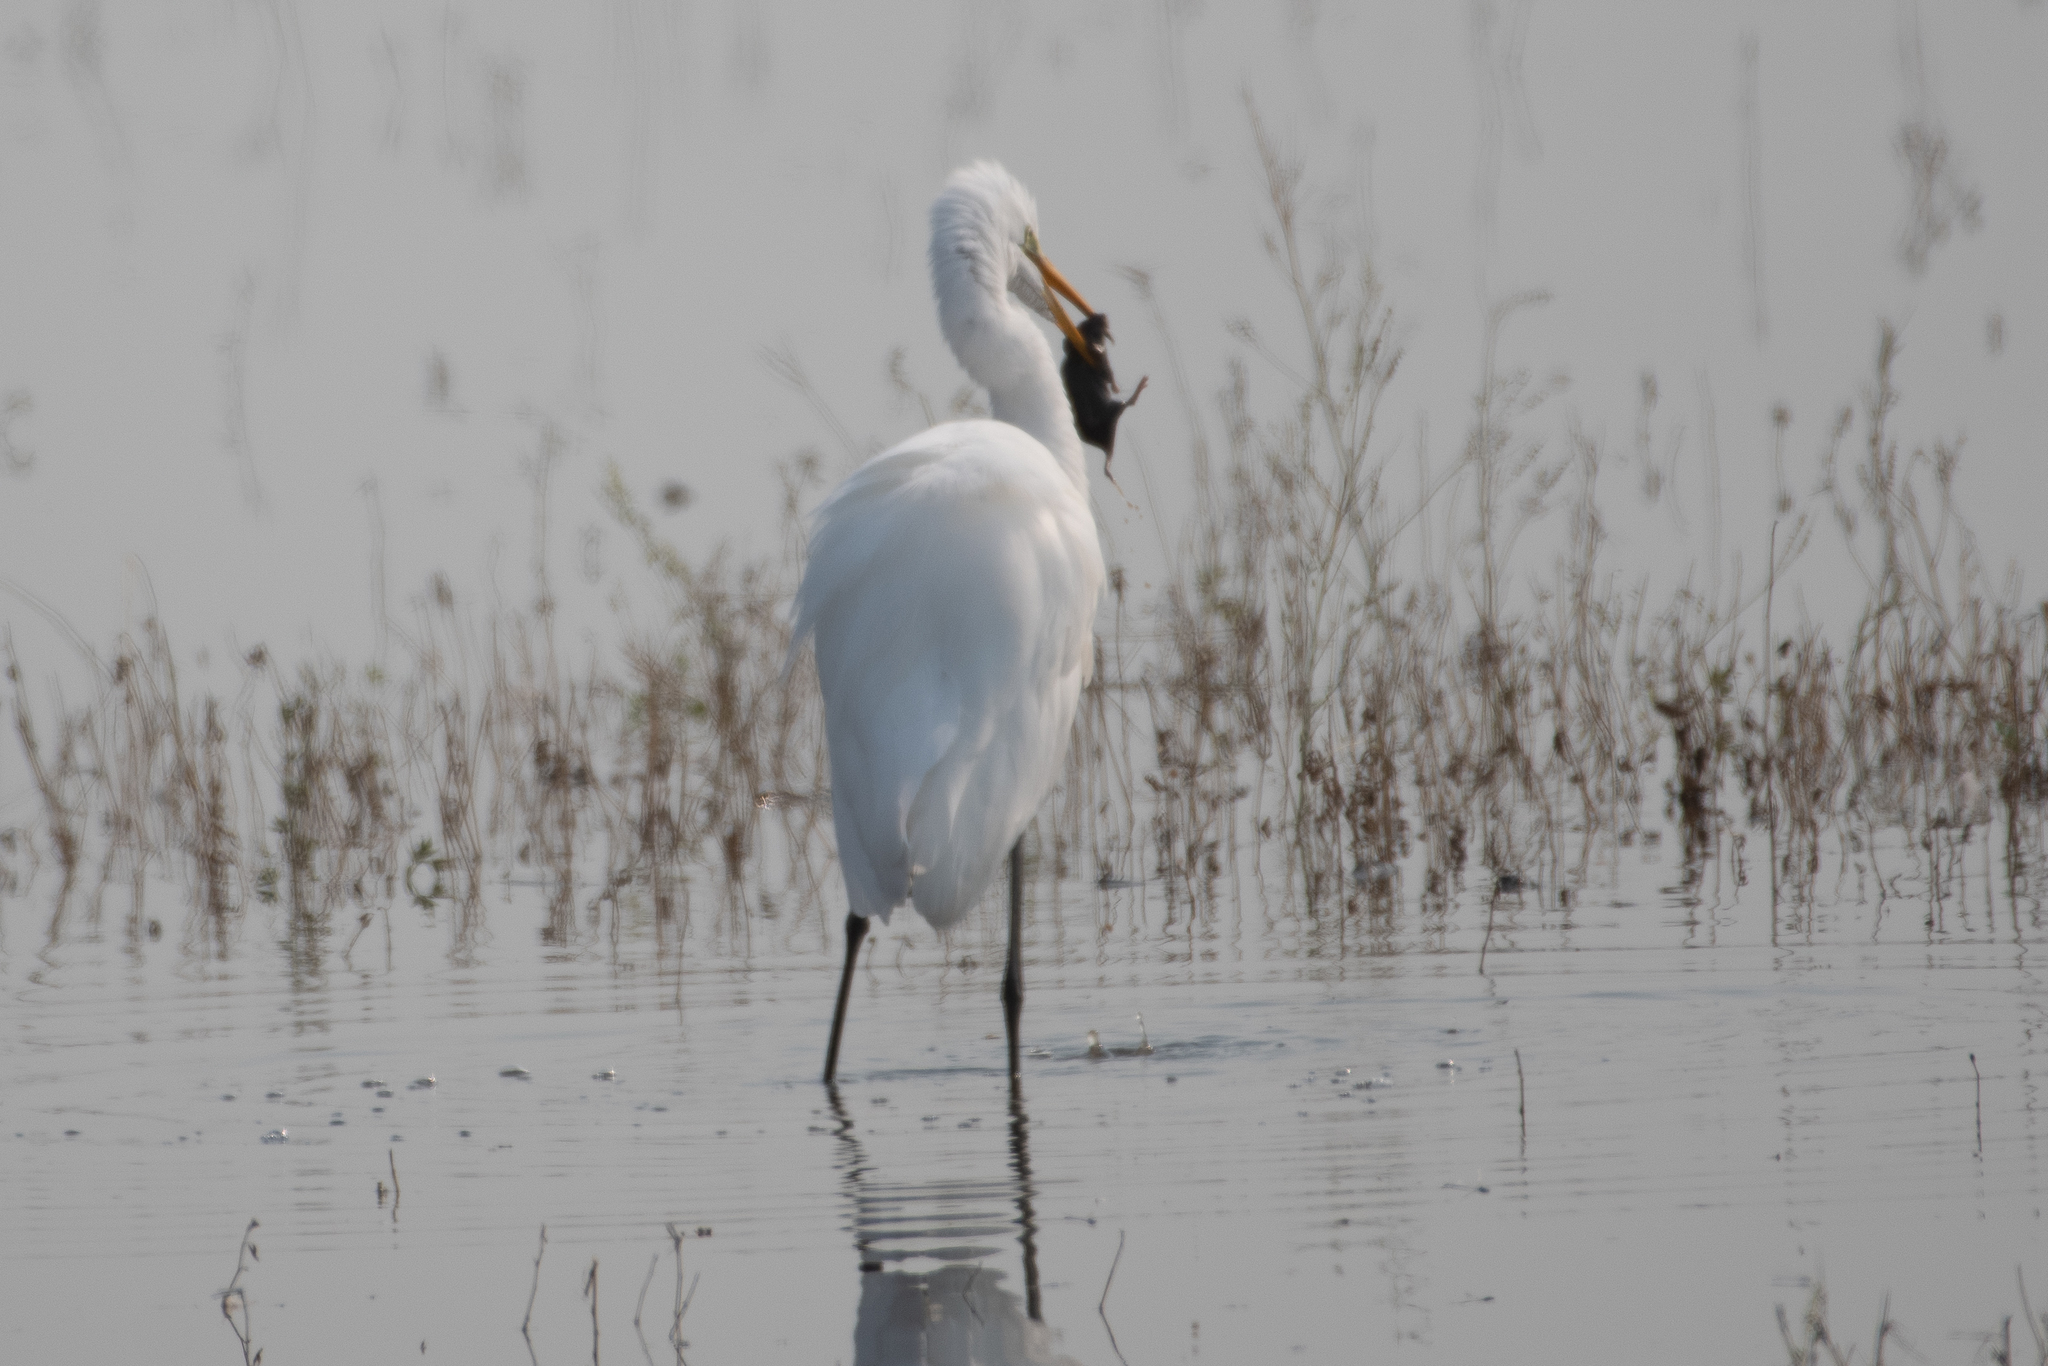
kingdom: Animalia
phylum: Chordata
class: Aves
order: Pelecaniformes
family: Ardeidae
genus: Ardea
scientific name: Ardea alba
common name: Great egret
